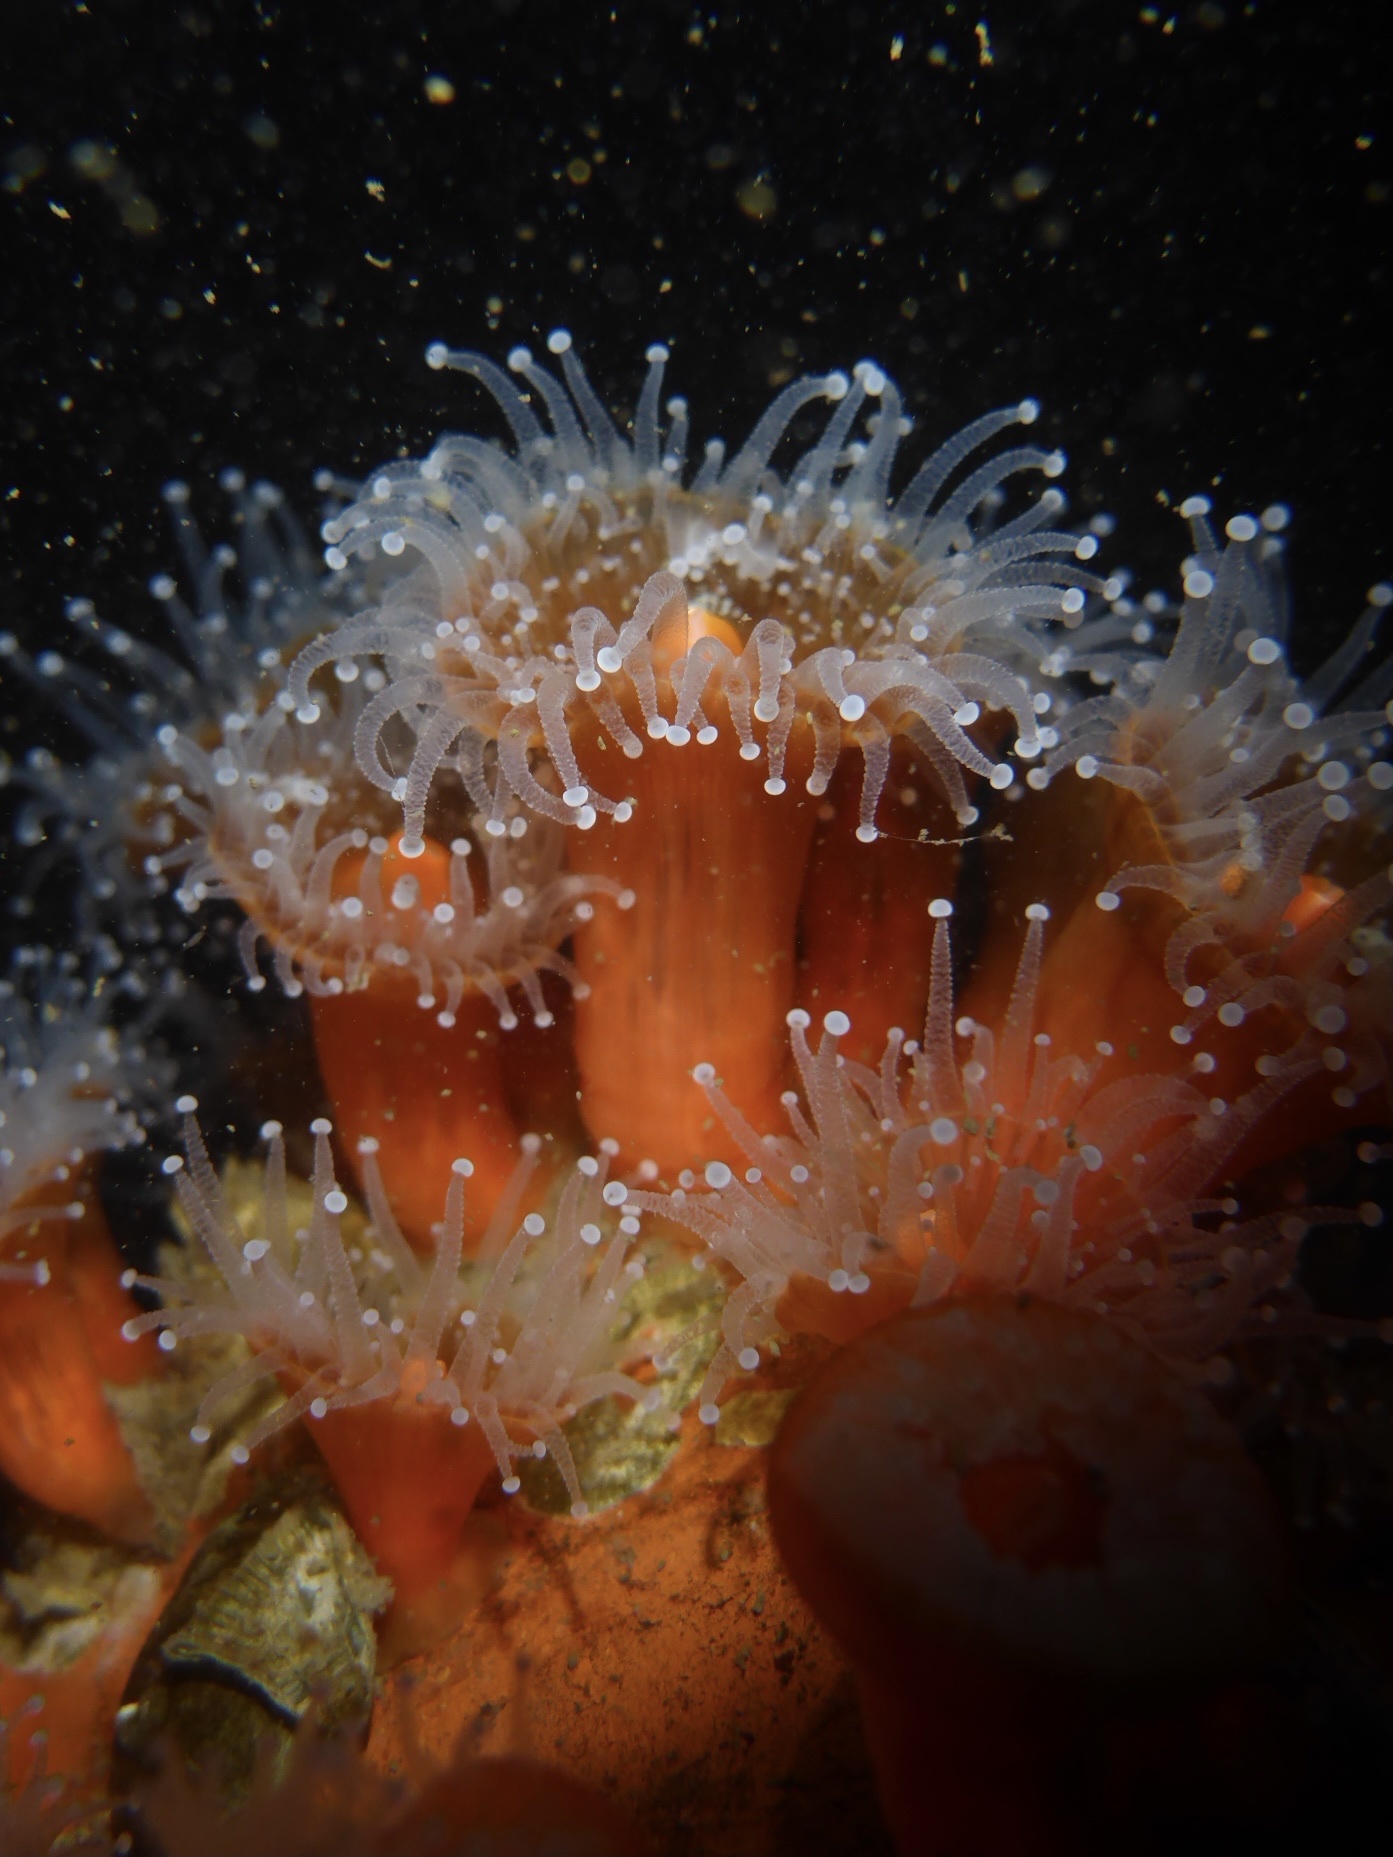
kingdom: Animalia
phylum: Cnidaria
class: Anthozoa
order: Corallimorpharia
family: Corallimorphidae
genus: Corynactis
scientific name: Corynactis californica
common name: Strawberry corallimorpharian
